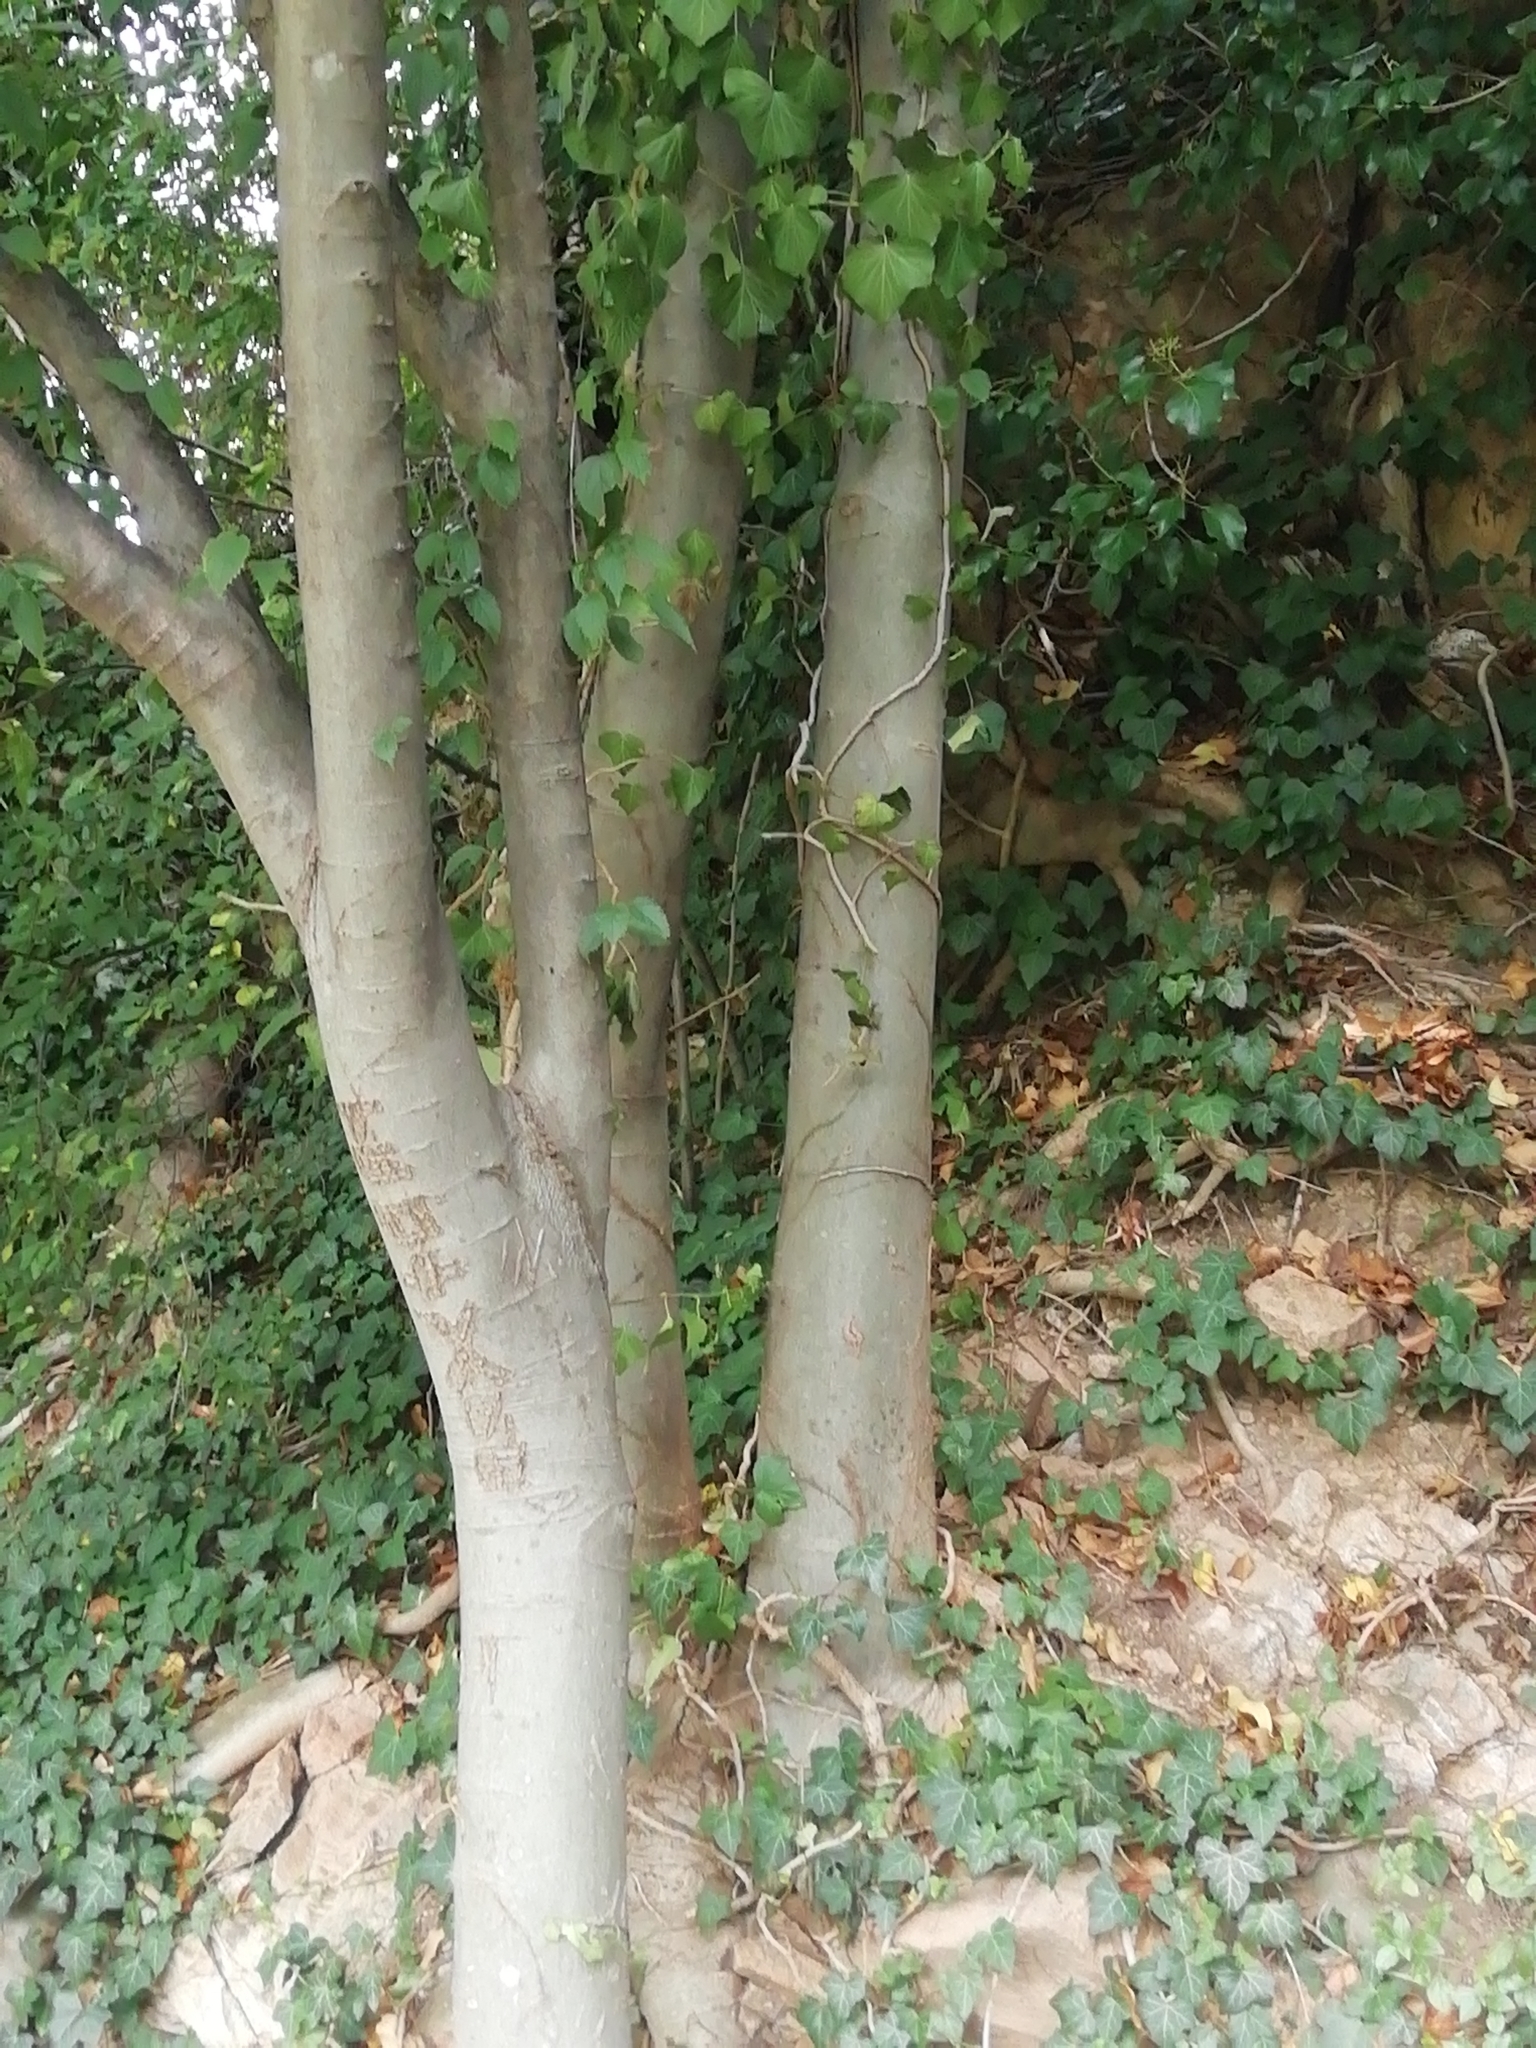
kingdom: Plantae
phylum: Tracheophyta
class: Magnoliopsida
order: Rosales
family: Cannabaceae
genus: Celtis
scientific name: Celtis australis
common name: European hackberry
